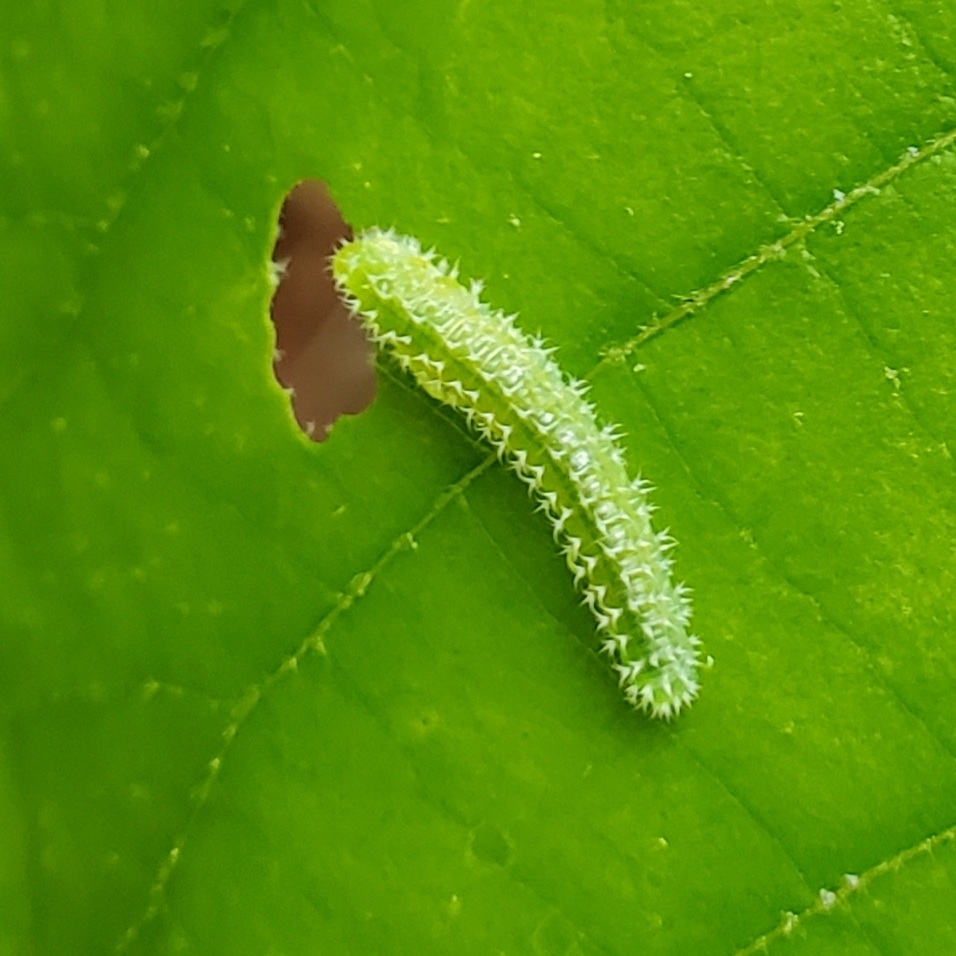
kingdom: Animalia
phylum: Arthropoda
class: Insecta
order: Hymenoptera
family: Tenthredinidae
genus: Periclista
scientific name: Periclista
